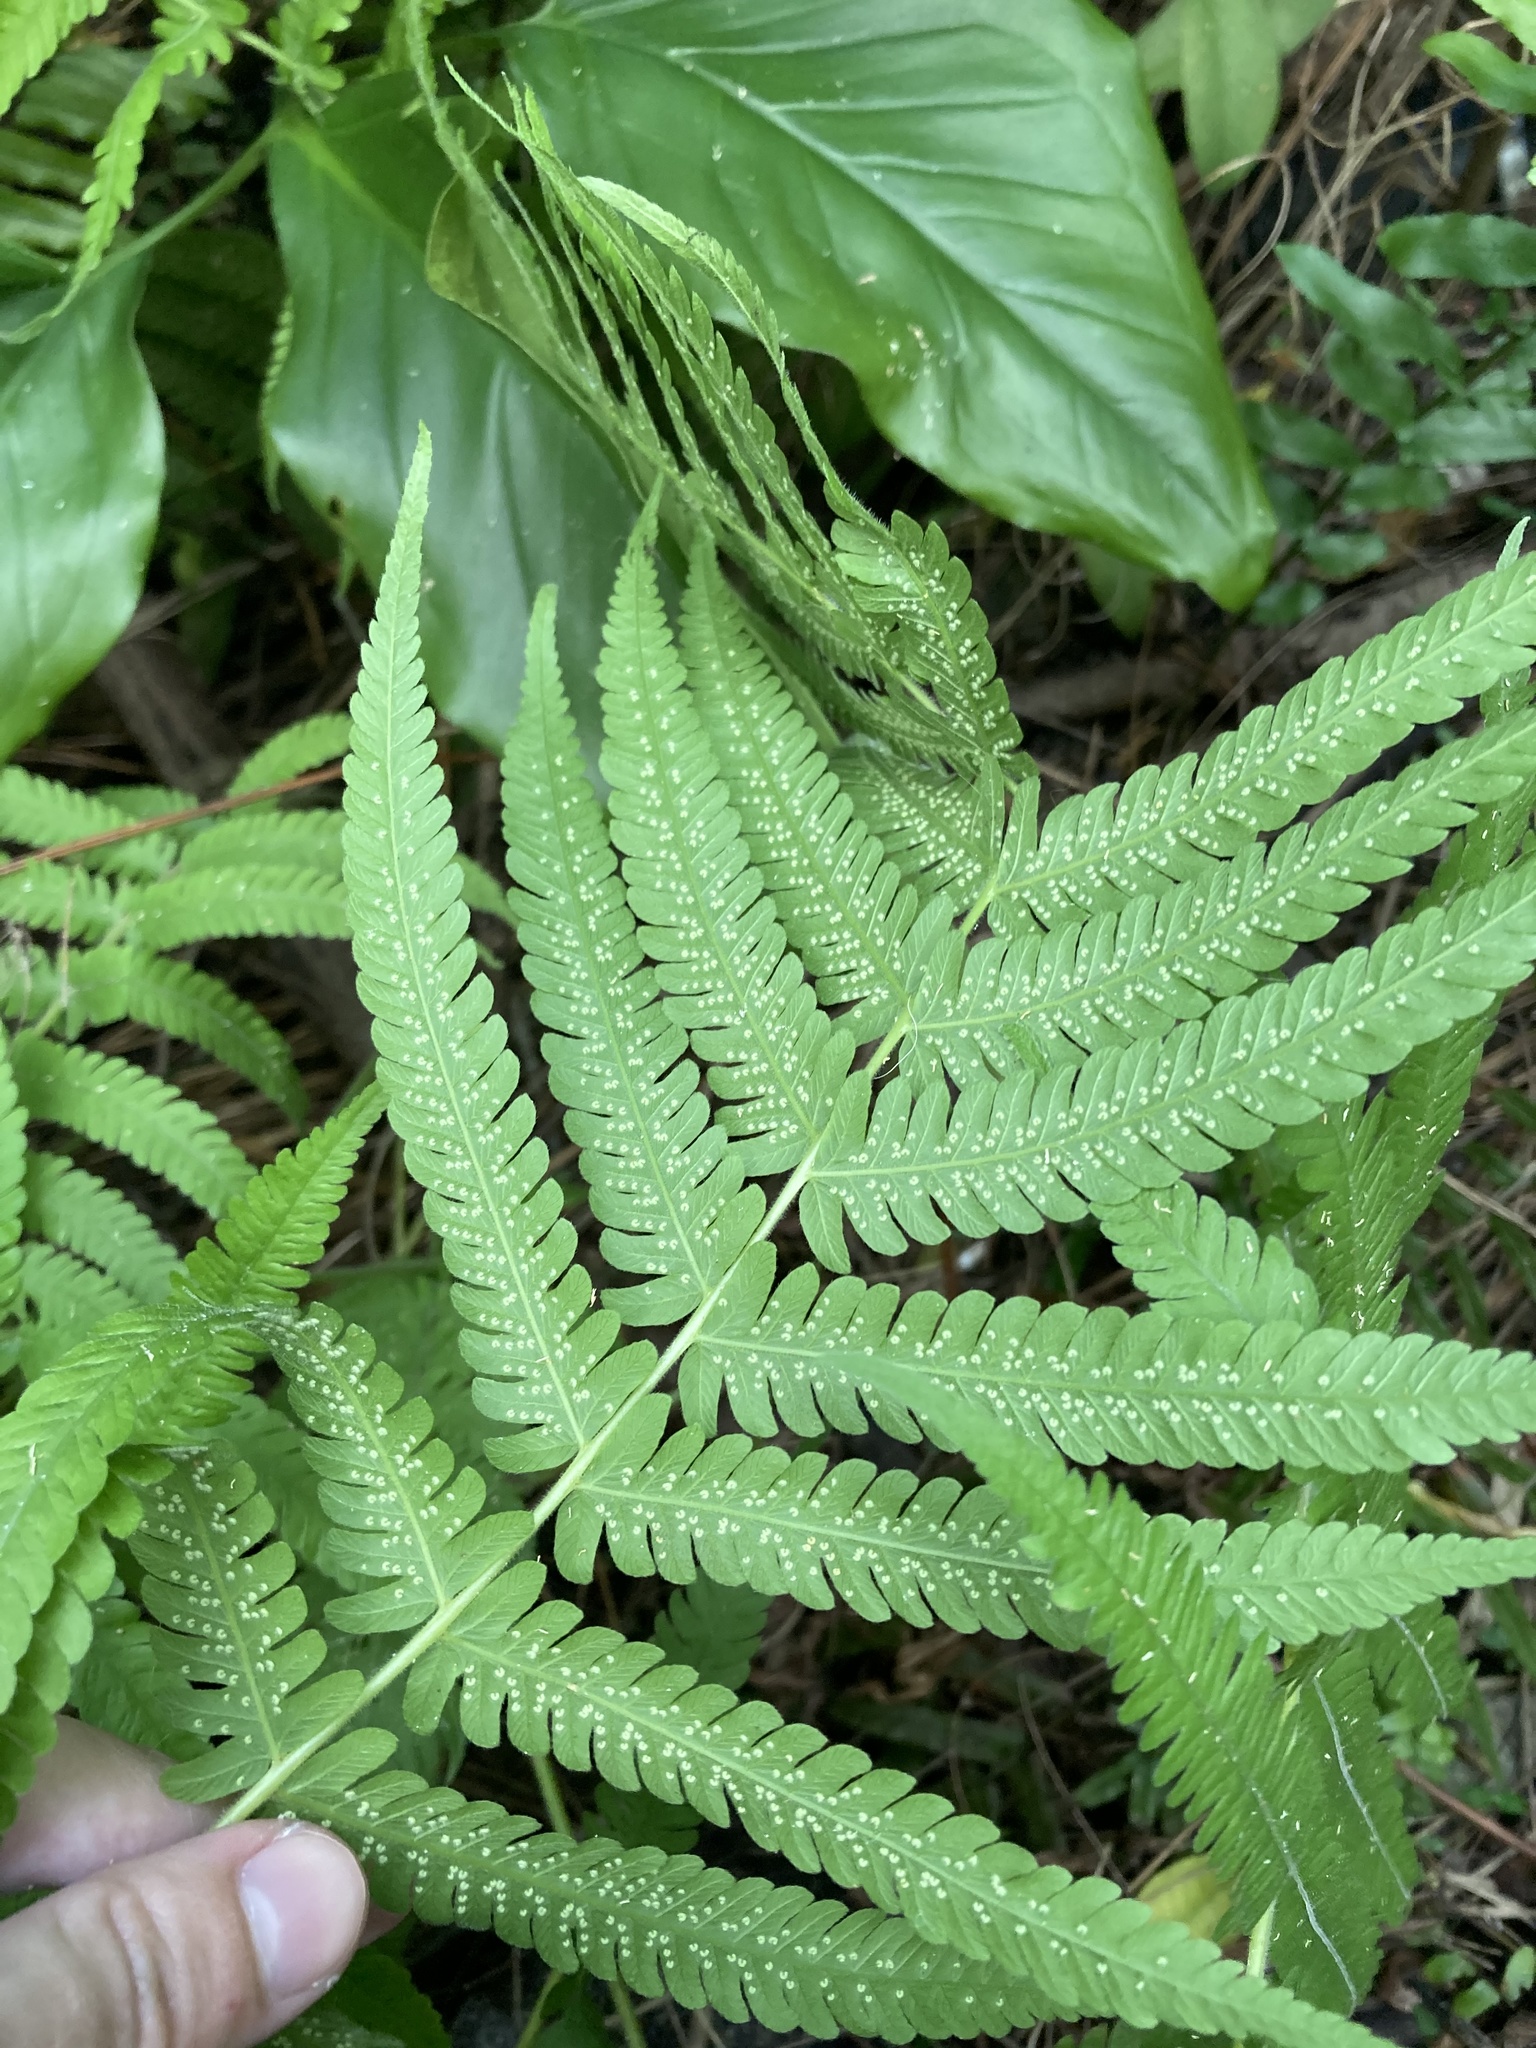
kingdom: Plantae
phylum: Tracheophyta
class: Polypodiopsida
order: Polypodiales
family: Thelypteridaceae
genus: Pelazoneuron
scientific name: Pelazoneuron kunthii
